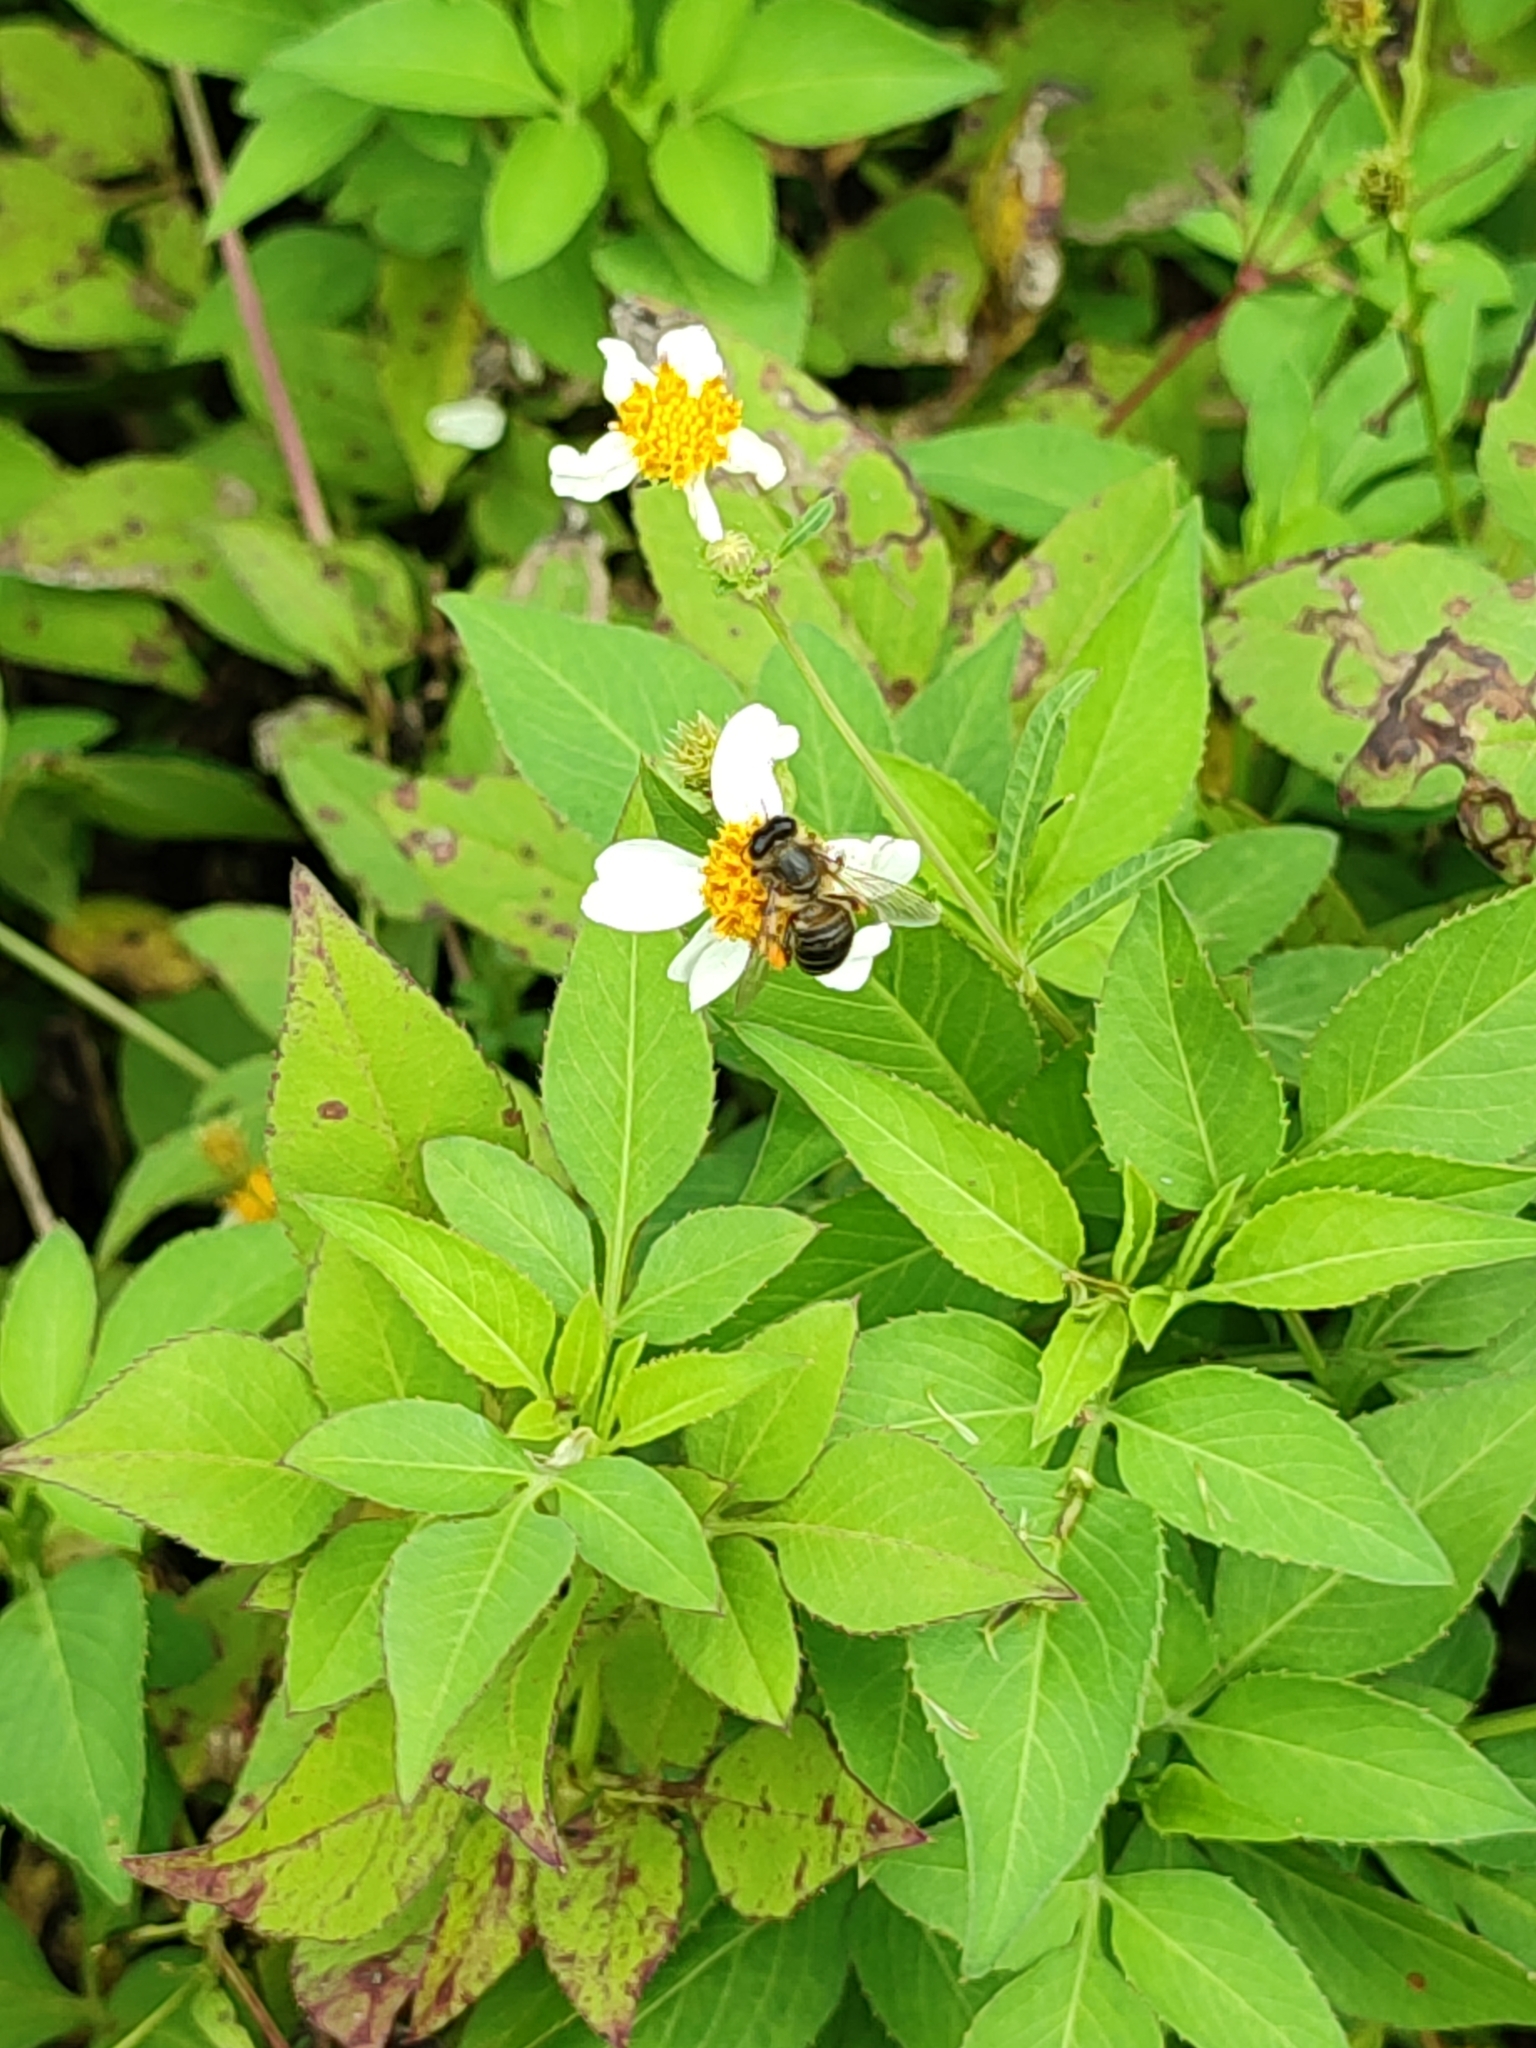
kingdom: Animalia
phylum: Arthropoda
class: Insecta
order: Hymenoptera
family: Apidae
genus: Apis
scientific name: Apis mellifera
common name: Honey bee
